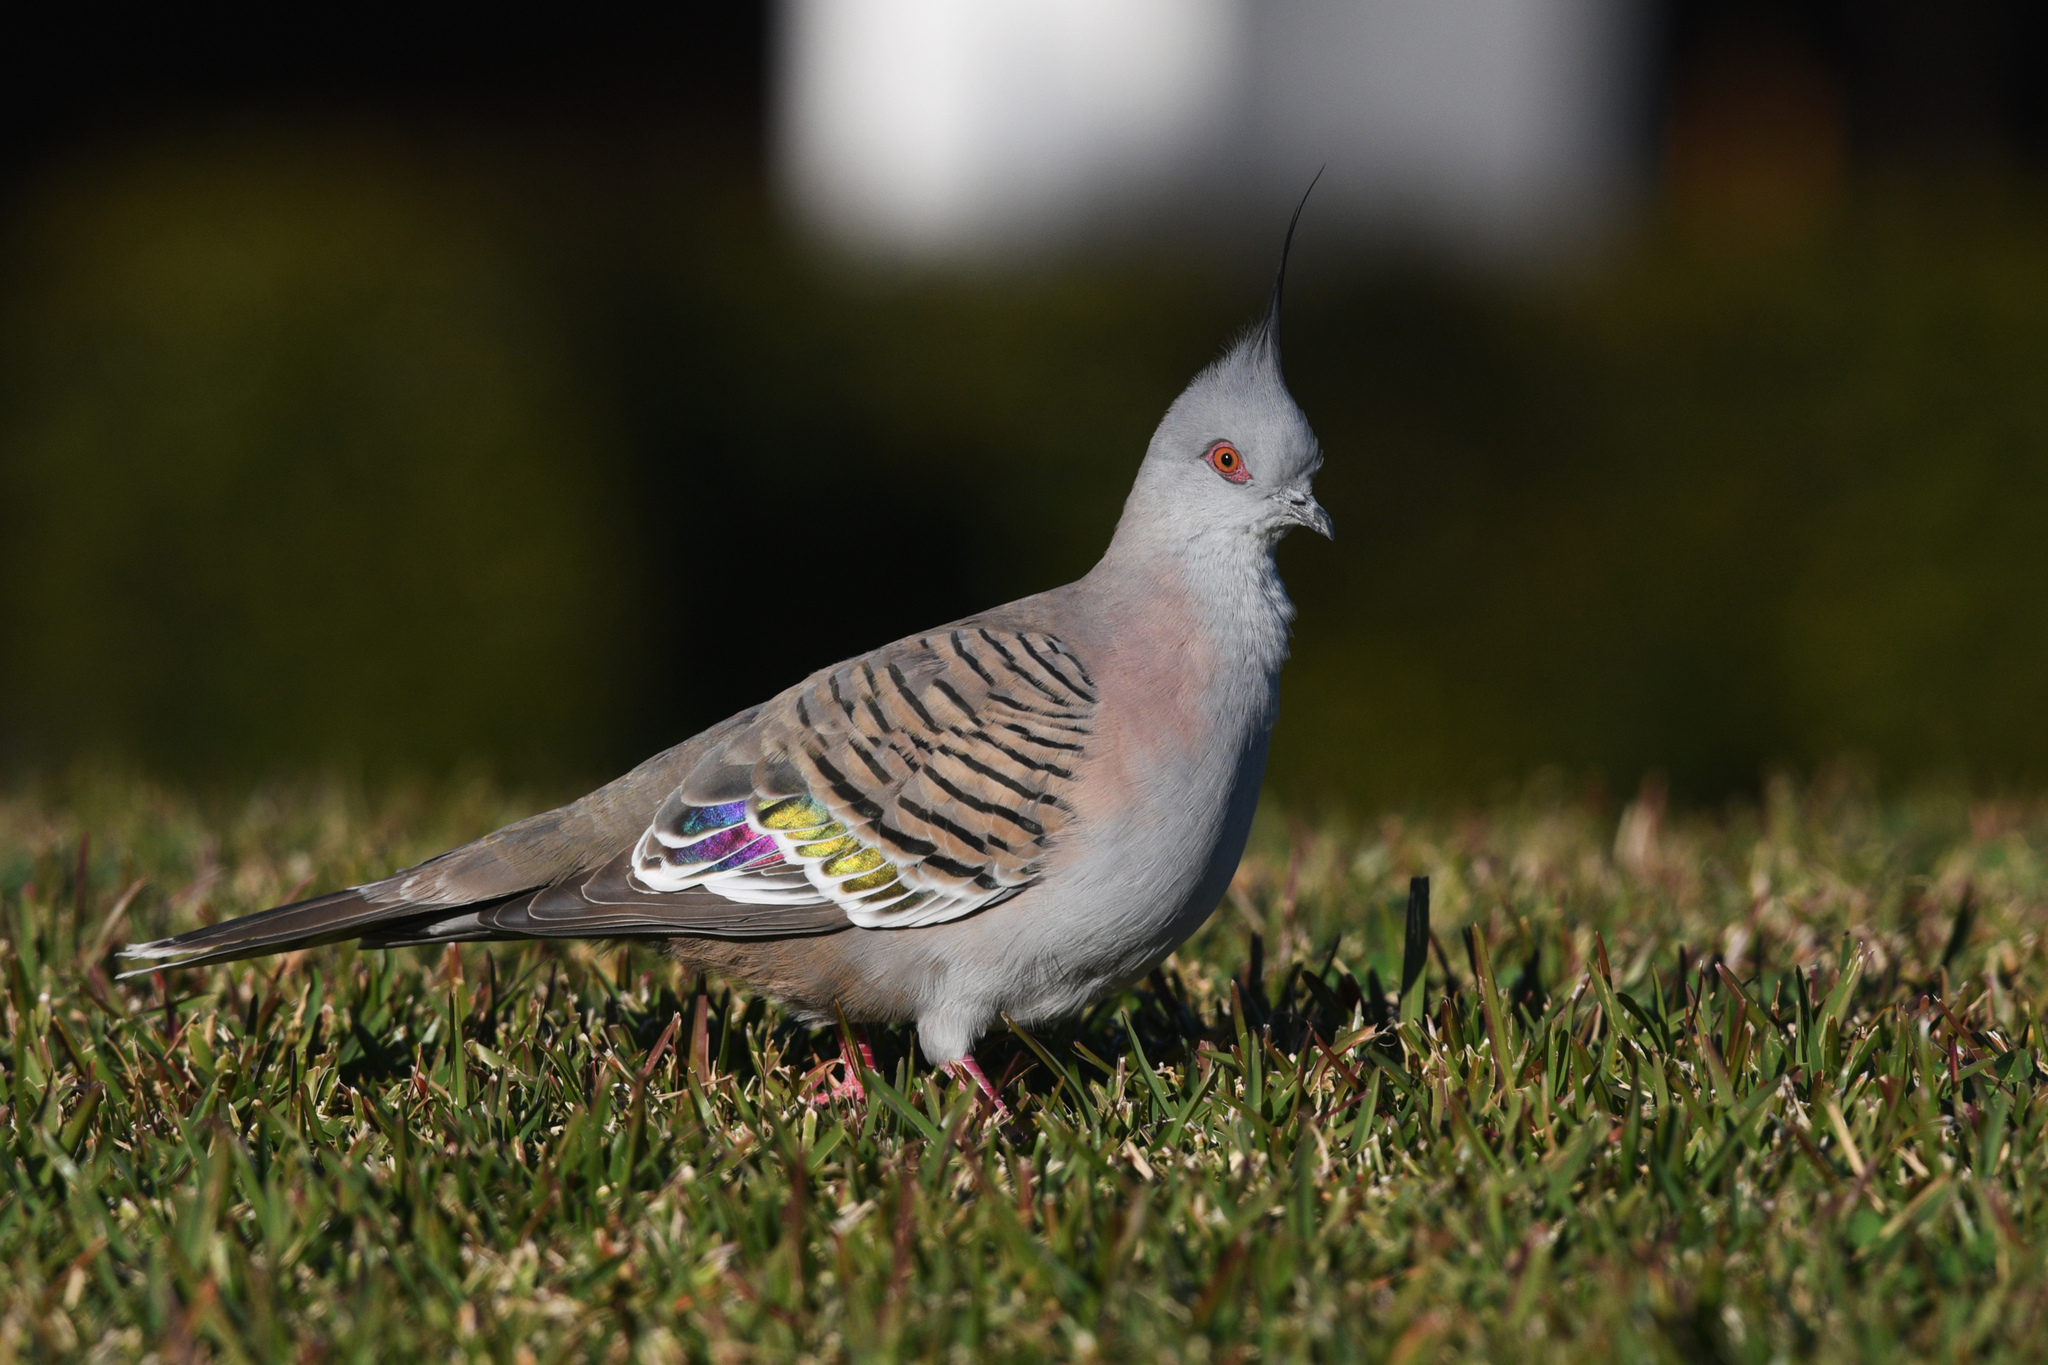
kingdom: Animalia
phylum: Chordata
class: Aves
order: Columbiformes
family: Columbidae
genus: Ocyphaps
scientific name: Ocyphaps lophotes
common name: Crested pigeon
